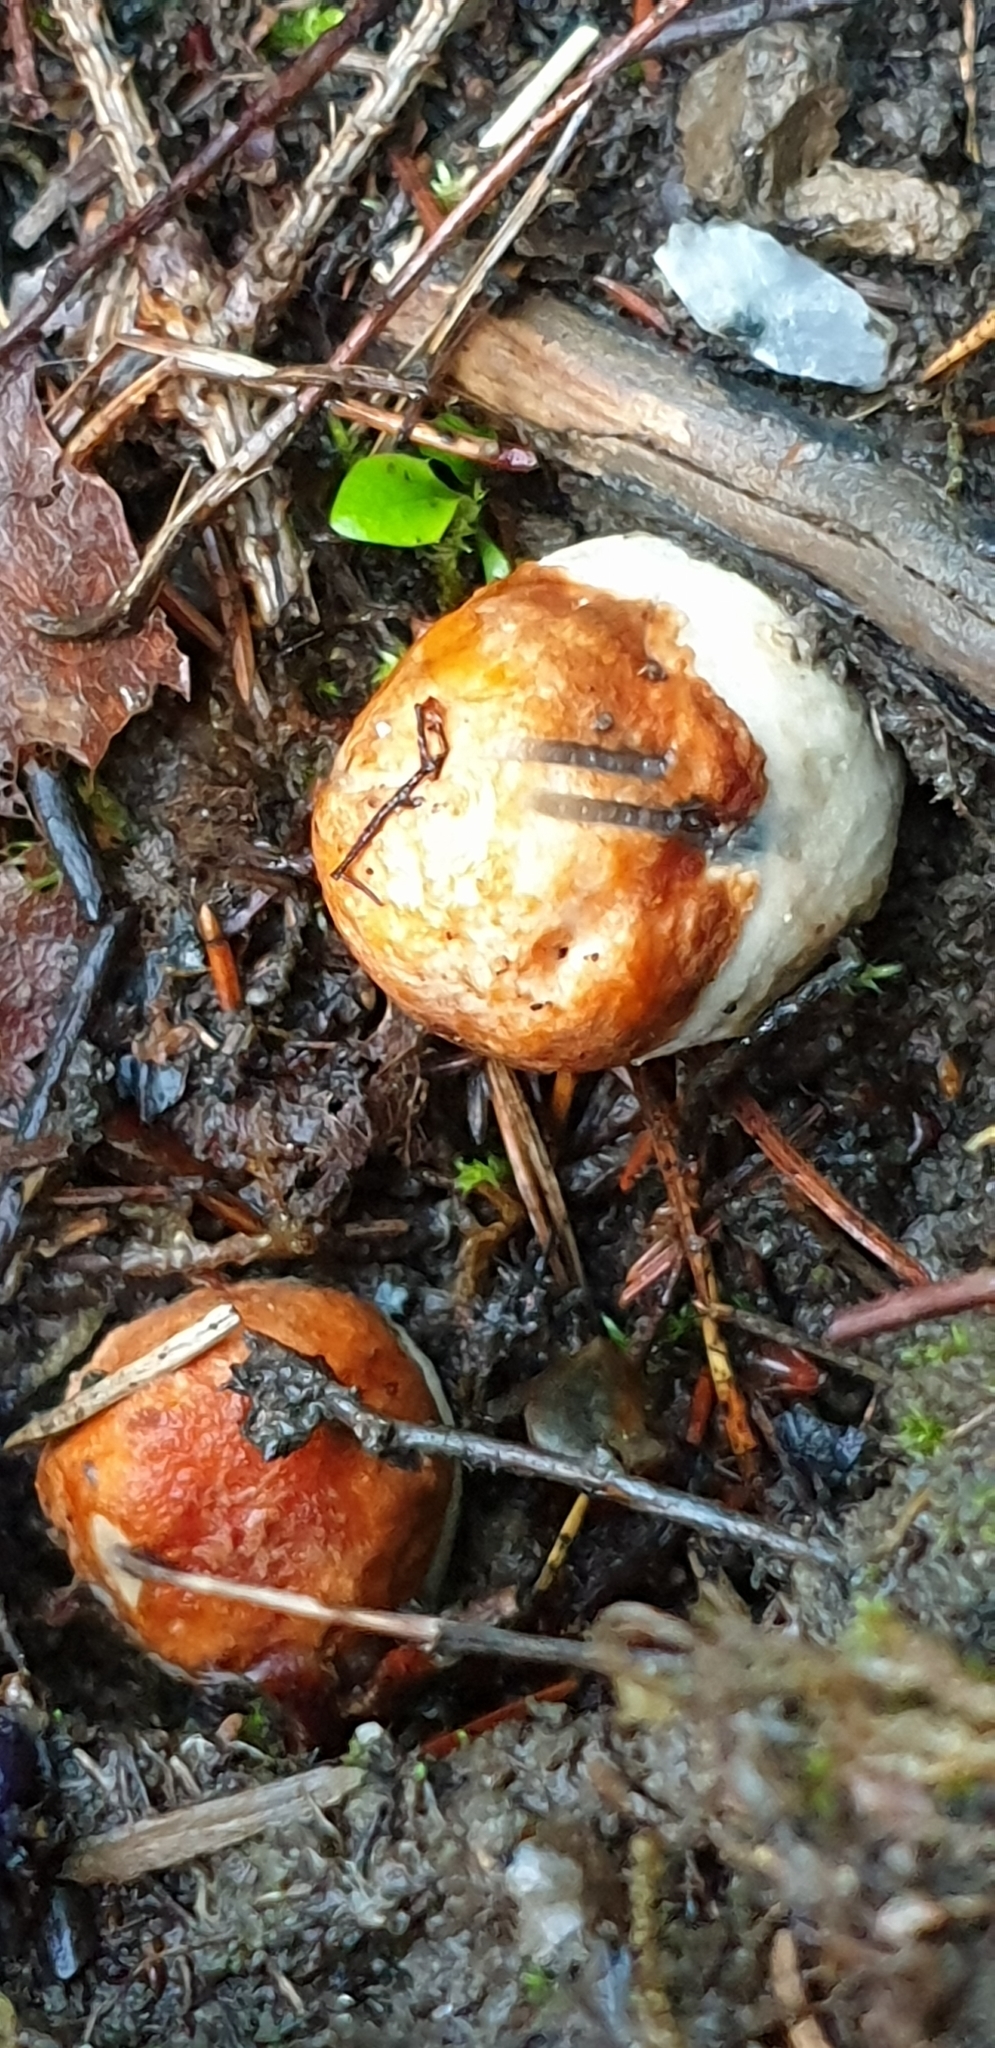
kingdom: Fungi
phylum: Basidiomycota
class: Agaricomycetes
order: Boletales
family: Boletaceae
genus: Leccinum
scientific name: Leccinum albostipitatum
